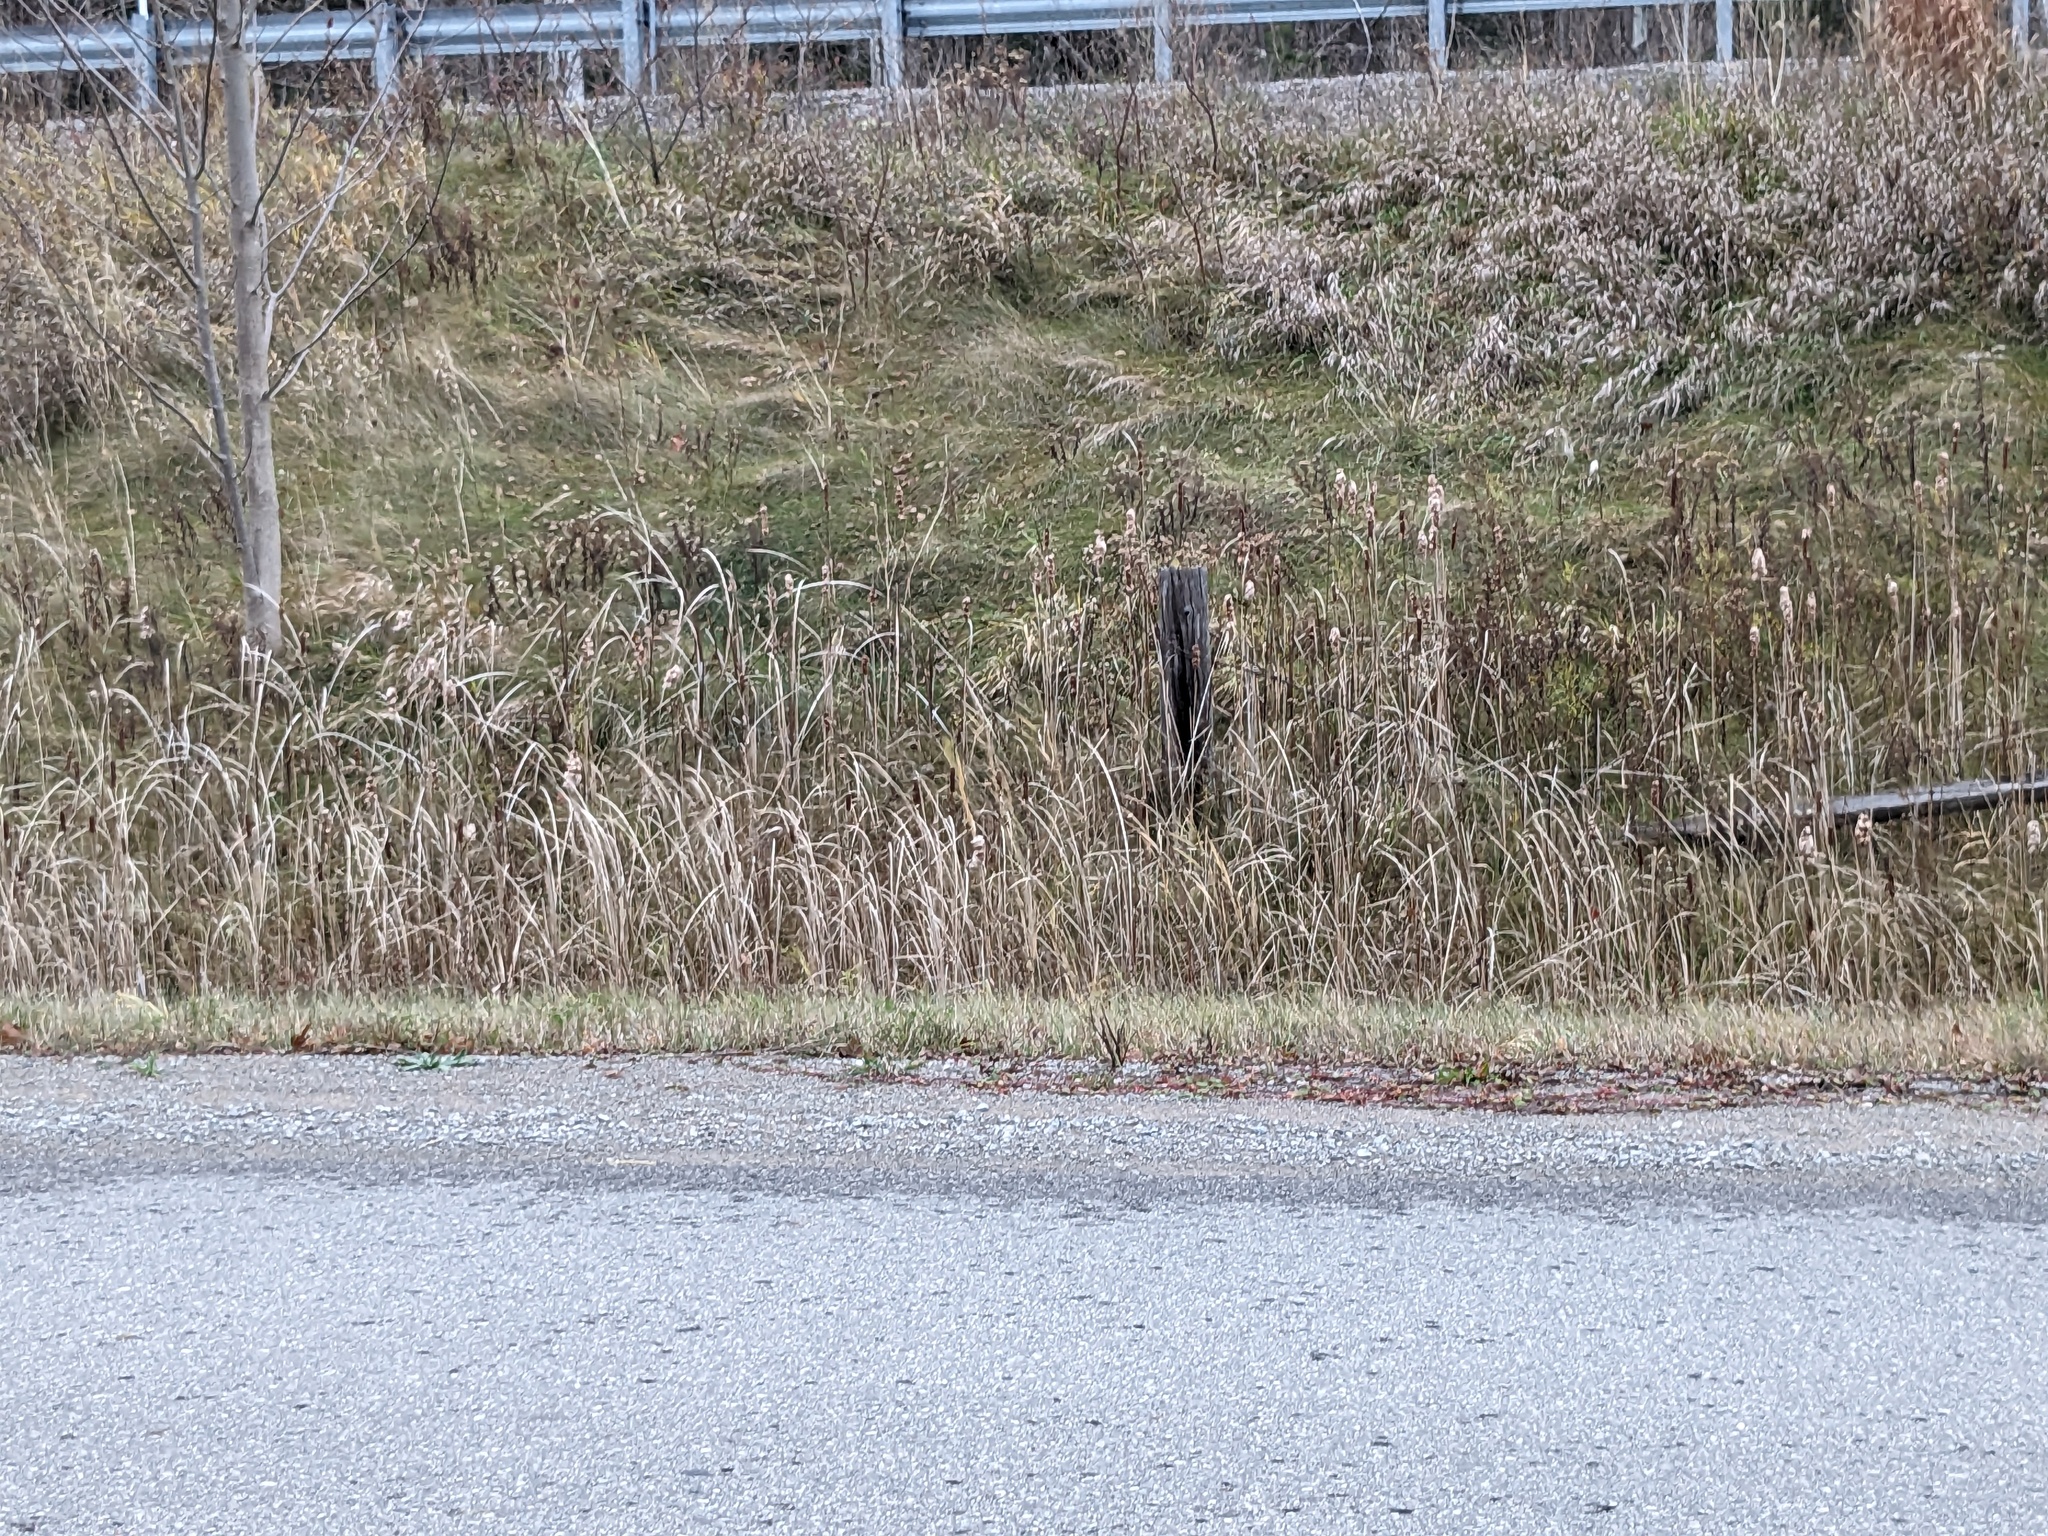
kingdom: Plantae
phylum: Tracheophyta
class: Liliopsida
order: Poales
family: Poaceae
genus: Phragmites
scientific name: Phragmites australis
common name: Common reed
